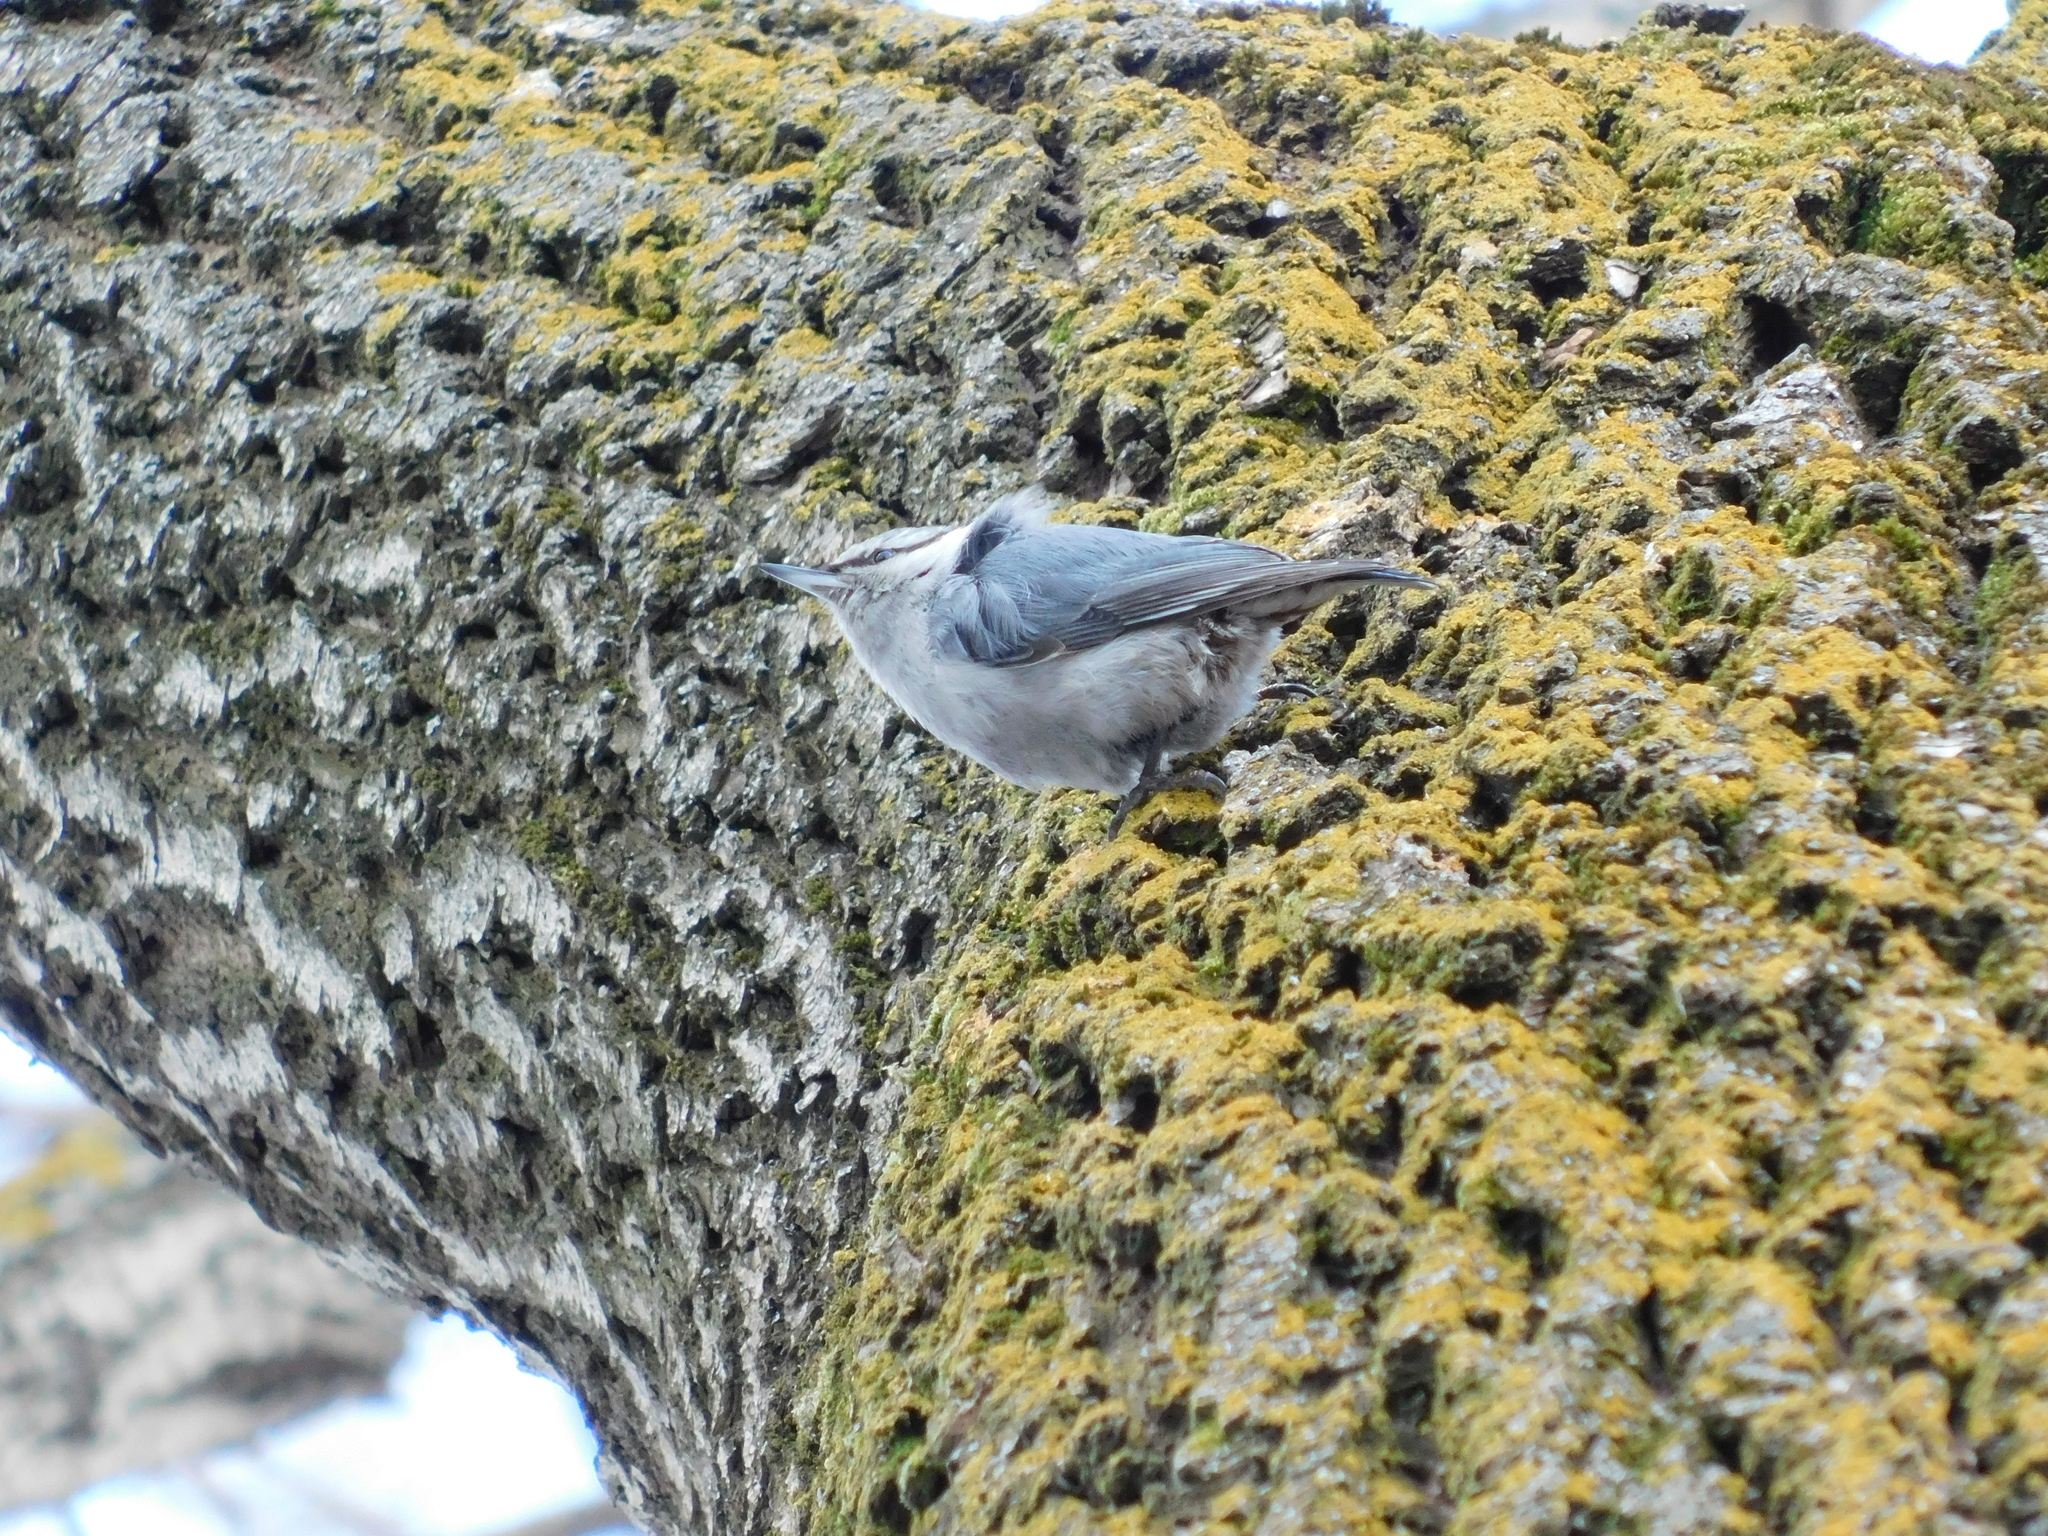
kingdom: Animalia
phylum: Chordata
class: Aves
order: Passeriformes
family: Sittidae
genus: Sitta
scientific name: Sitta europaea
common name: Eurasian nuthatch
